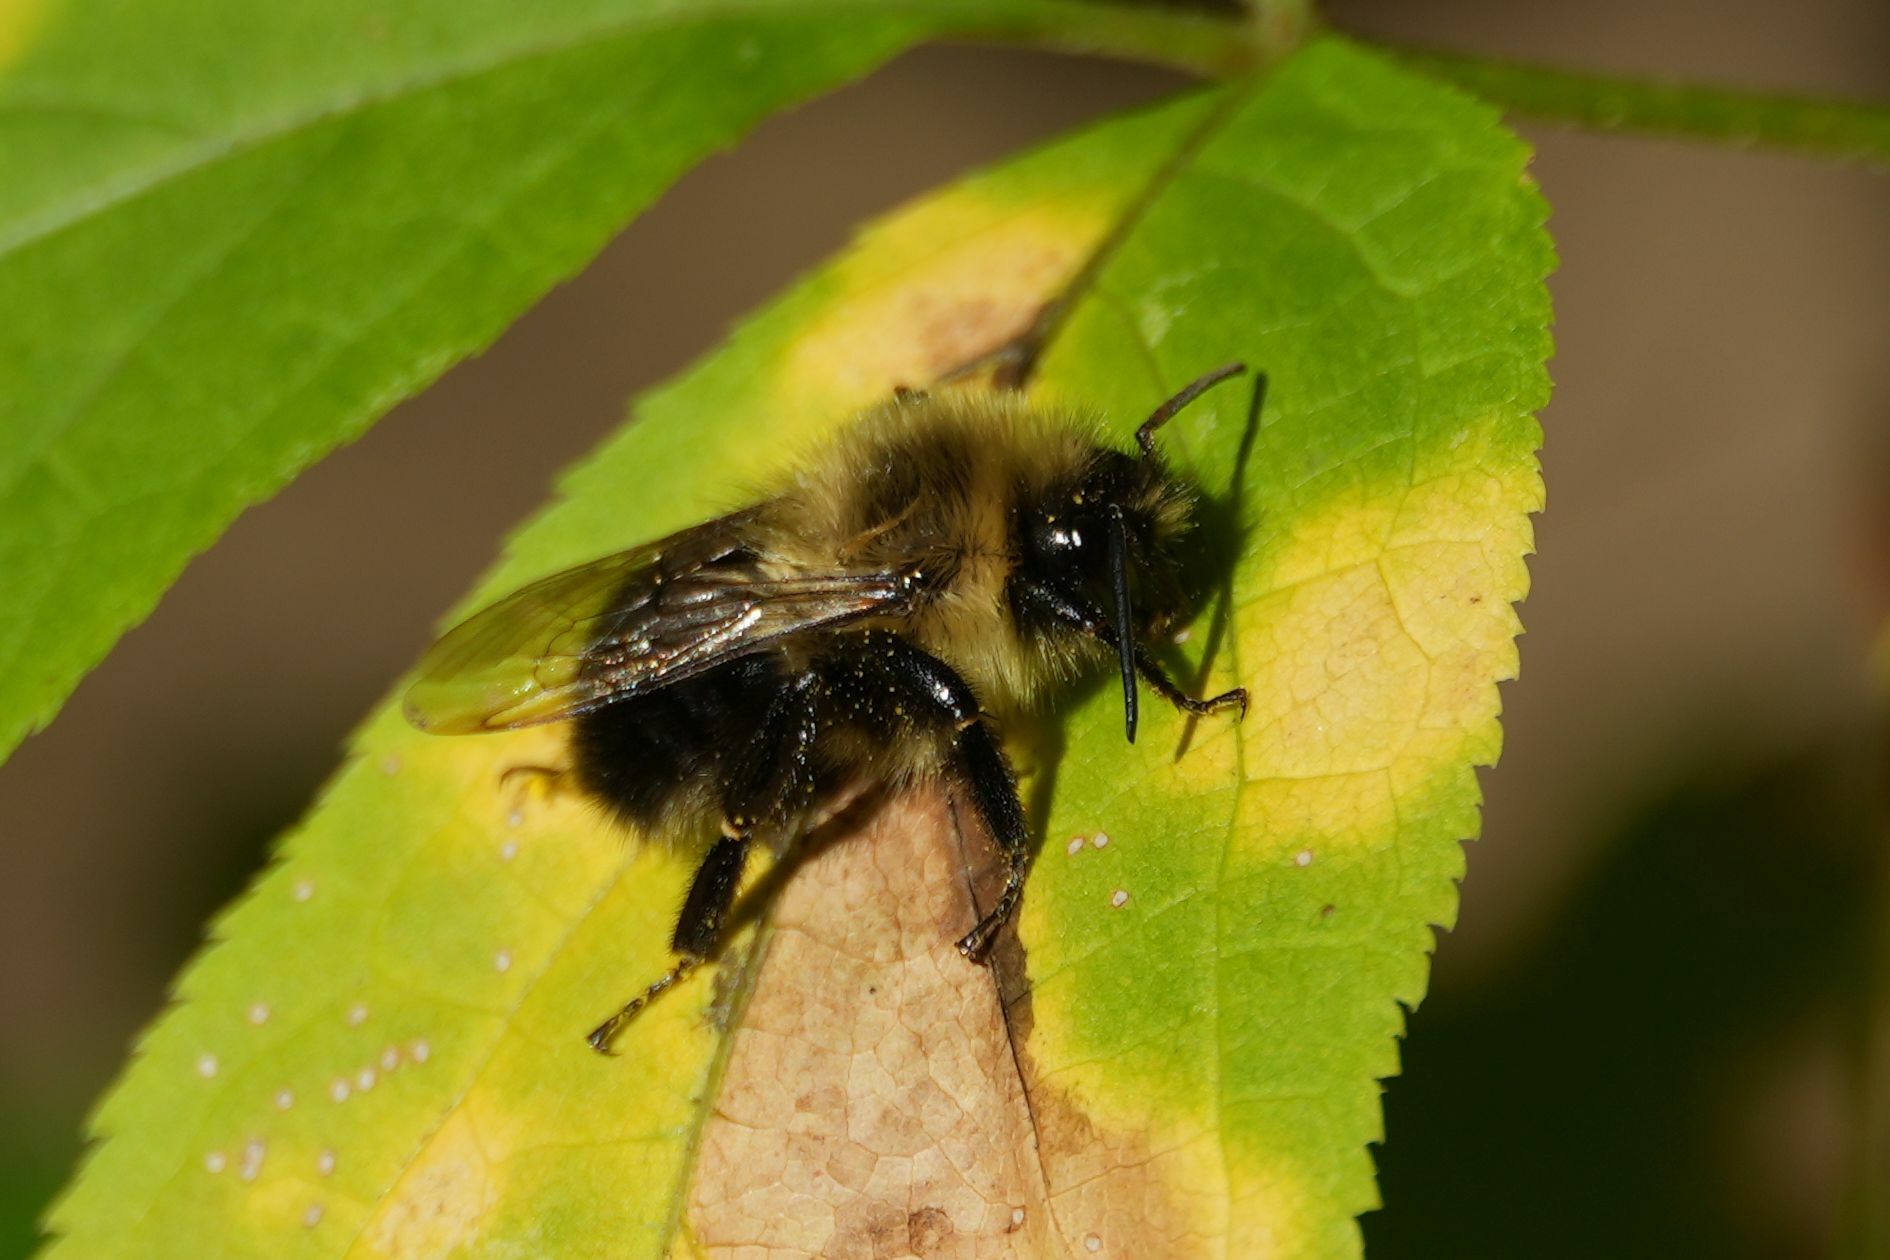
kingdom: Animalia
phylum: Arthropoda
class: Insecta
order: Hymenoptera
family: Apidae
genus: Bombus
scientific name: Bombus impatiens
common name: Common eastern bumble bee
